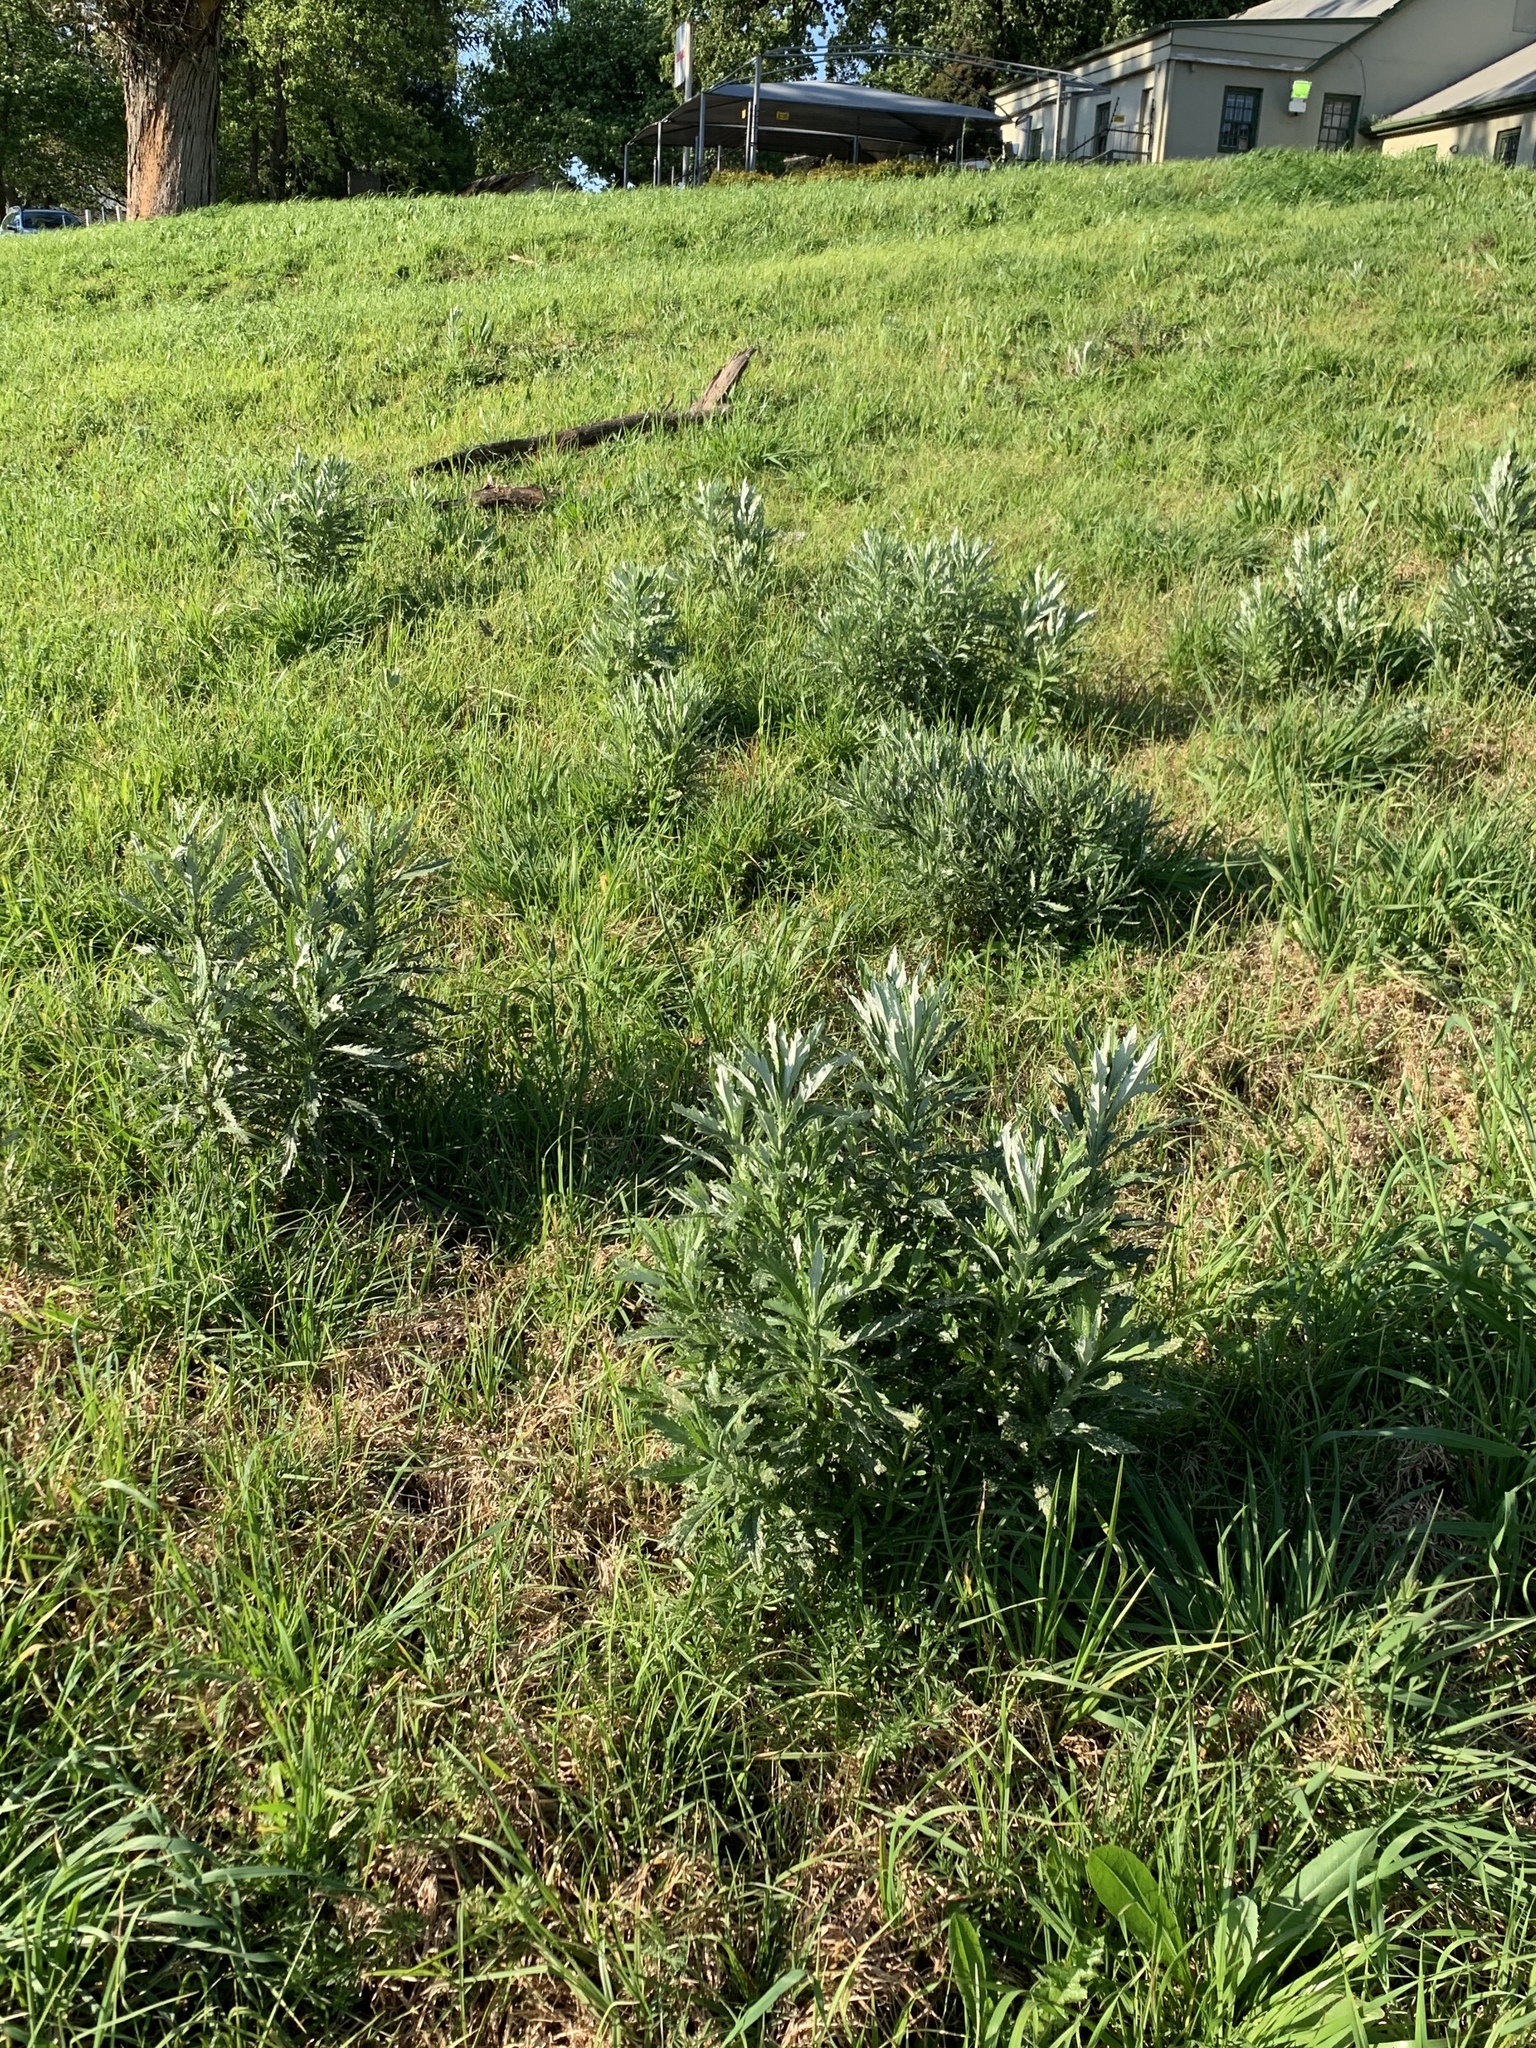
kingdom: Plantae
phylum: Tracheophyta
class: Magnoliopsida
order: Asterales
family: Asteraceae
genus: Senecio
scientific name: Senecio pterophorus
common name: Shoddy ragwort
